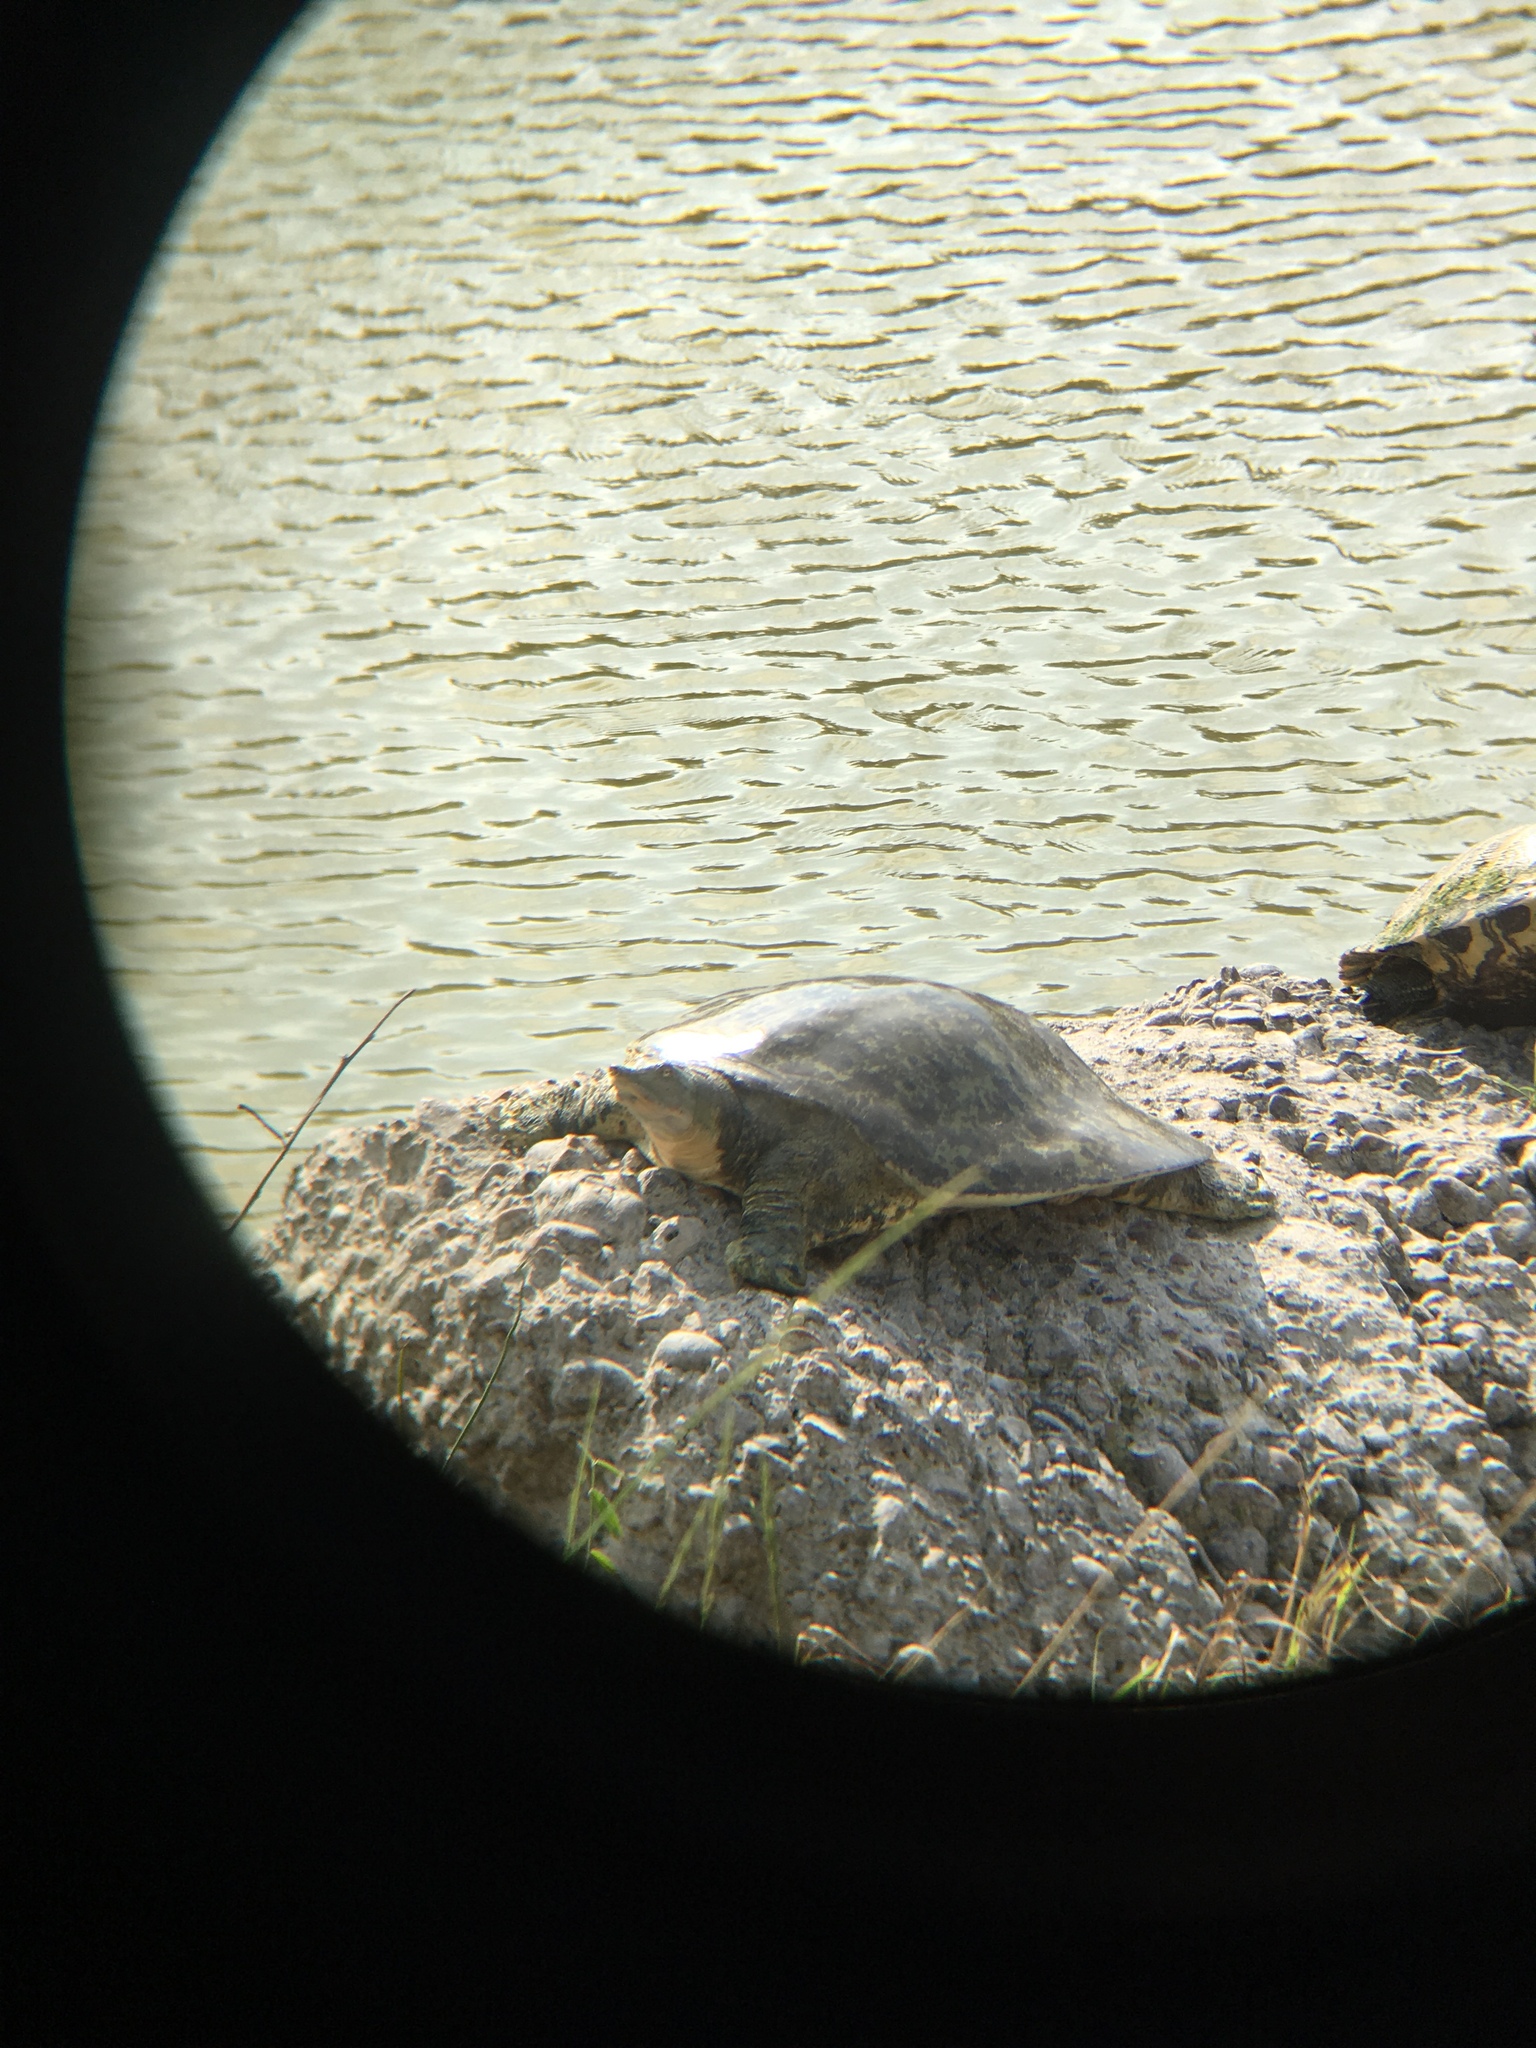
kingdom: Animalia
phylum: Chordata
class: Testudines
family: Trionychidae
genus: Apalone
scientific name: Apalone spinifera
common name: Spiny softshell turtle
